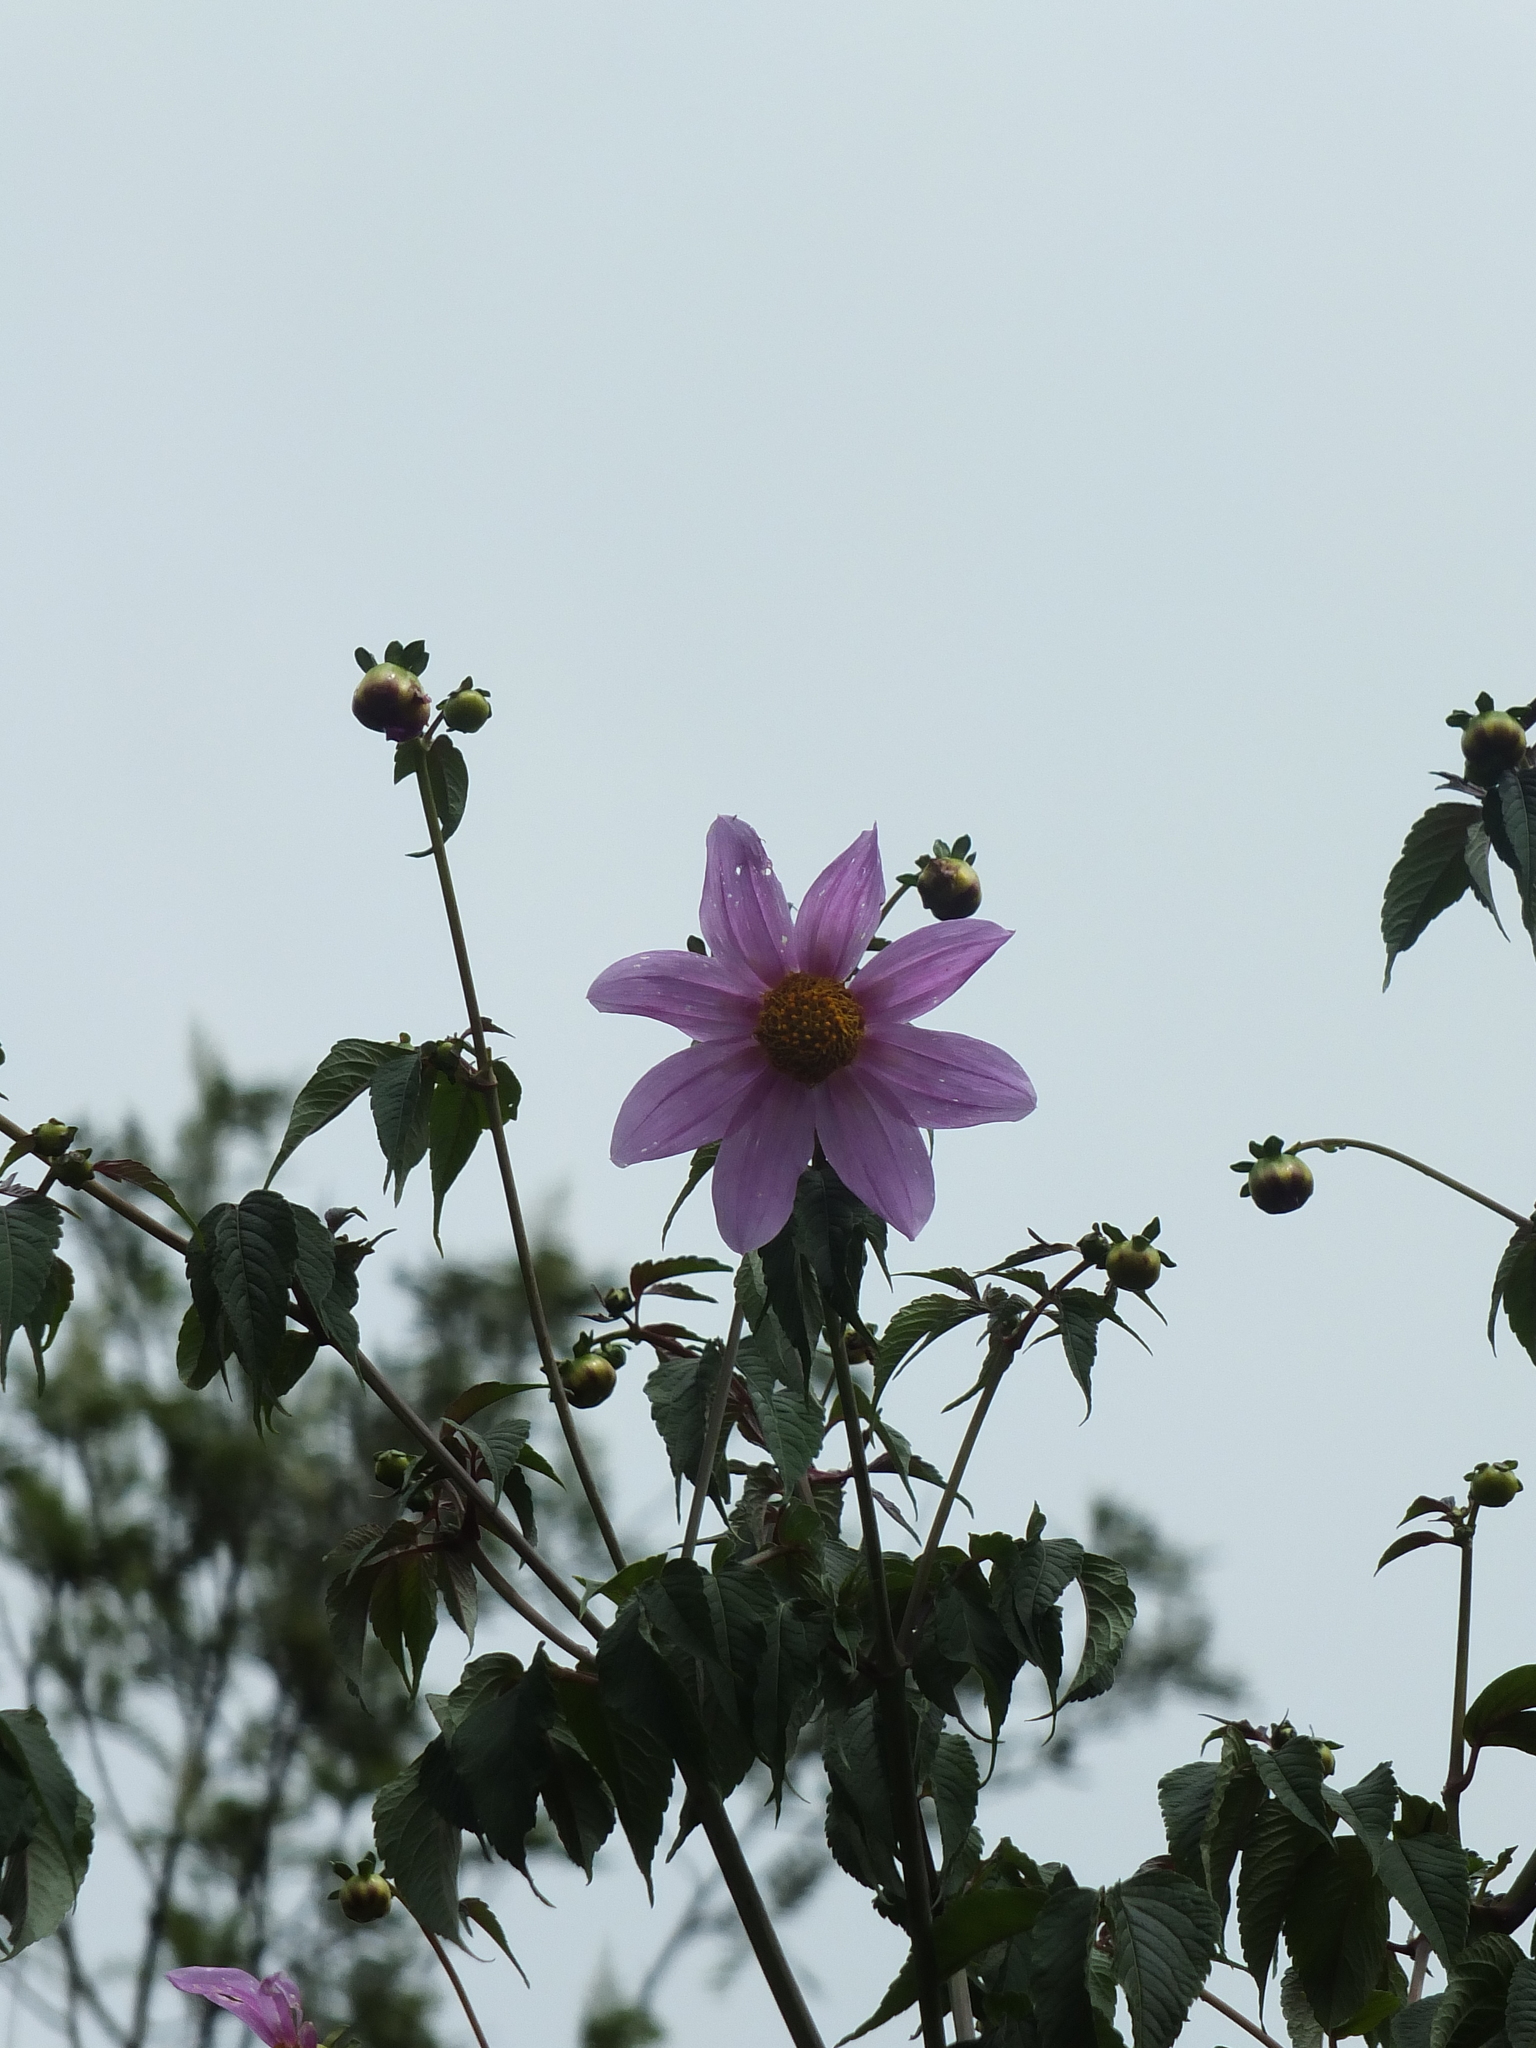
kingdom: Plantae
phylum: Tracheophyta
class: Magnoliopsida
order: Asterales
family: Asteraceae
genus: Dahlia
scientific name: Dahlia imperialis
